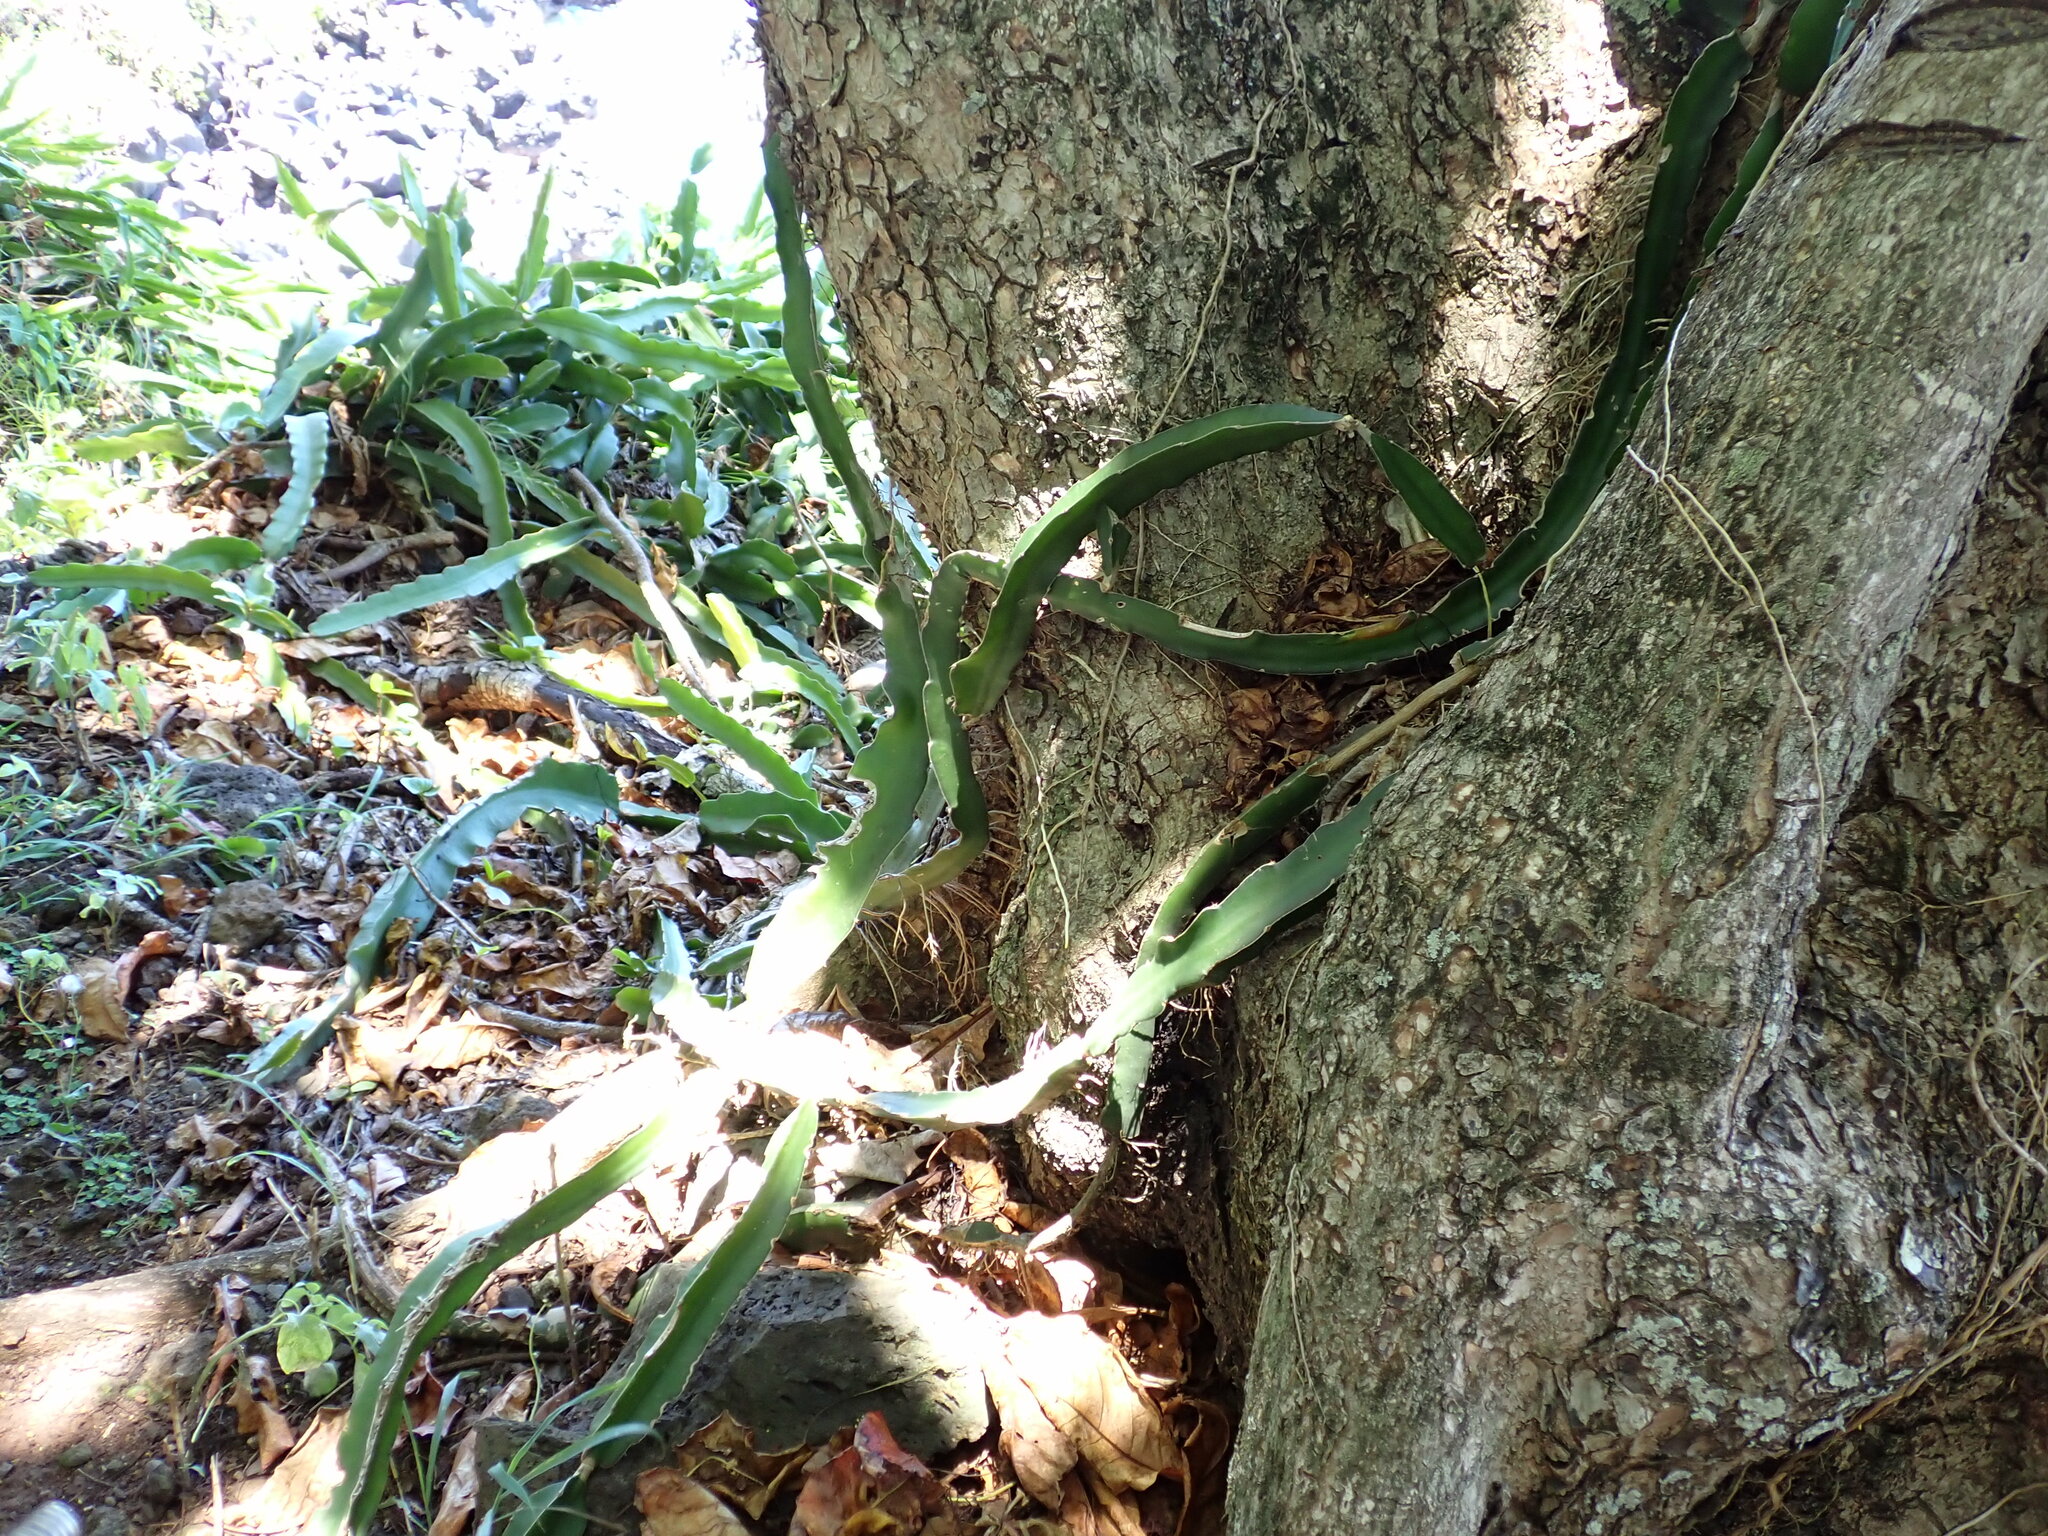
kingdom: Plantae
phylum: Tracheophyta
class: Magnoliopsida
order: Caryophyllales
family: Cactaceae
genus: Selenicereus
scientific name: Selenicereus undatus
